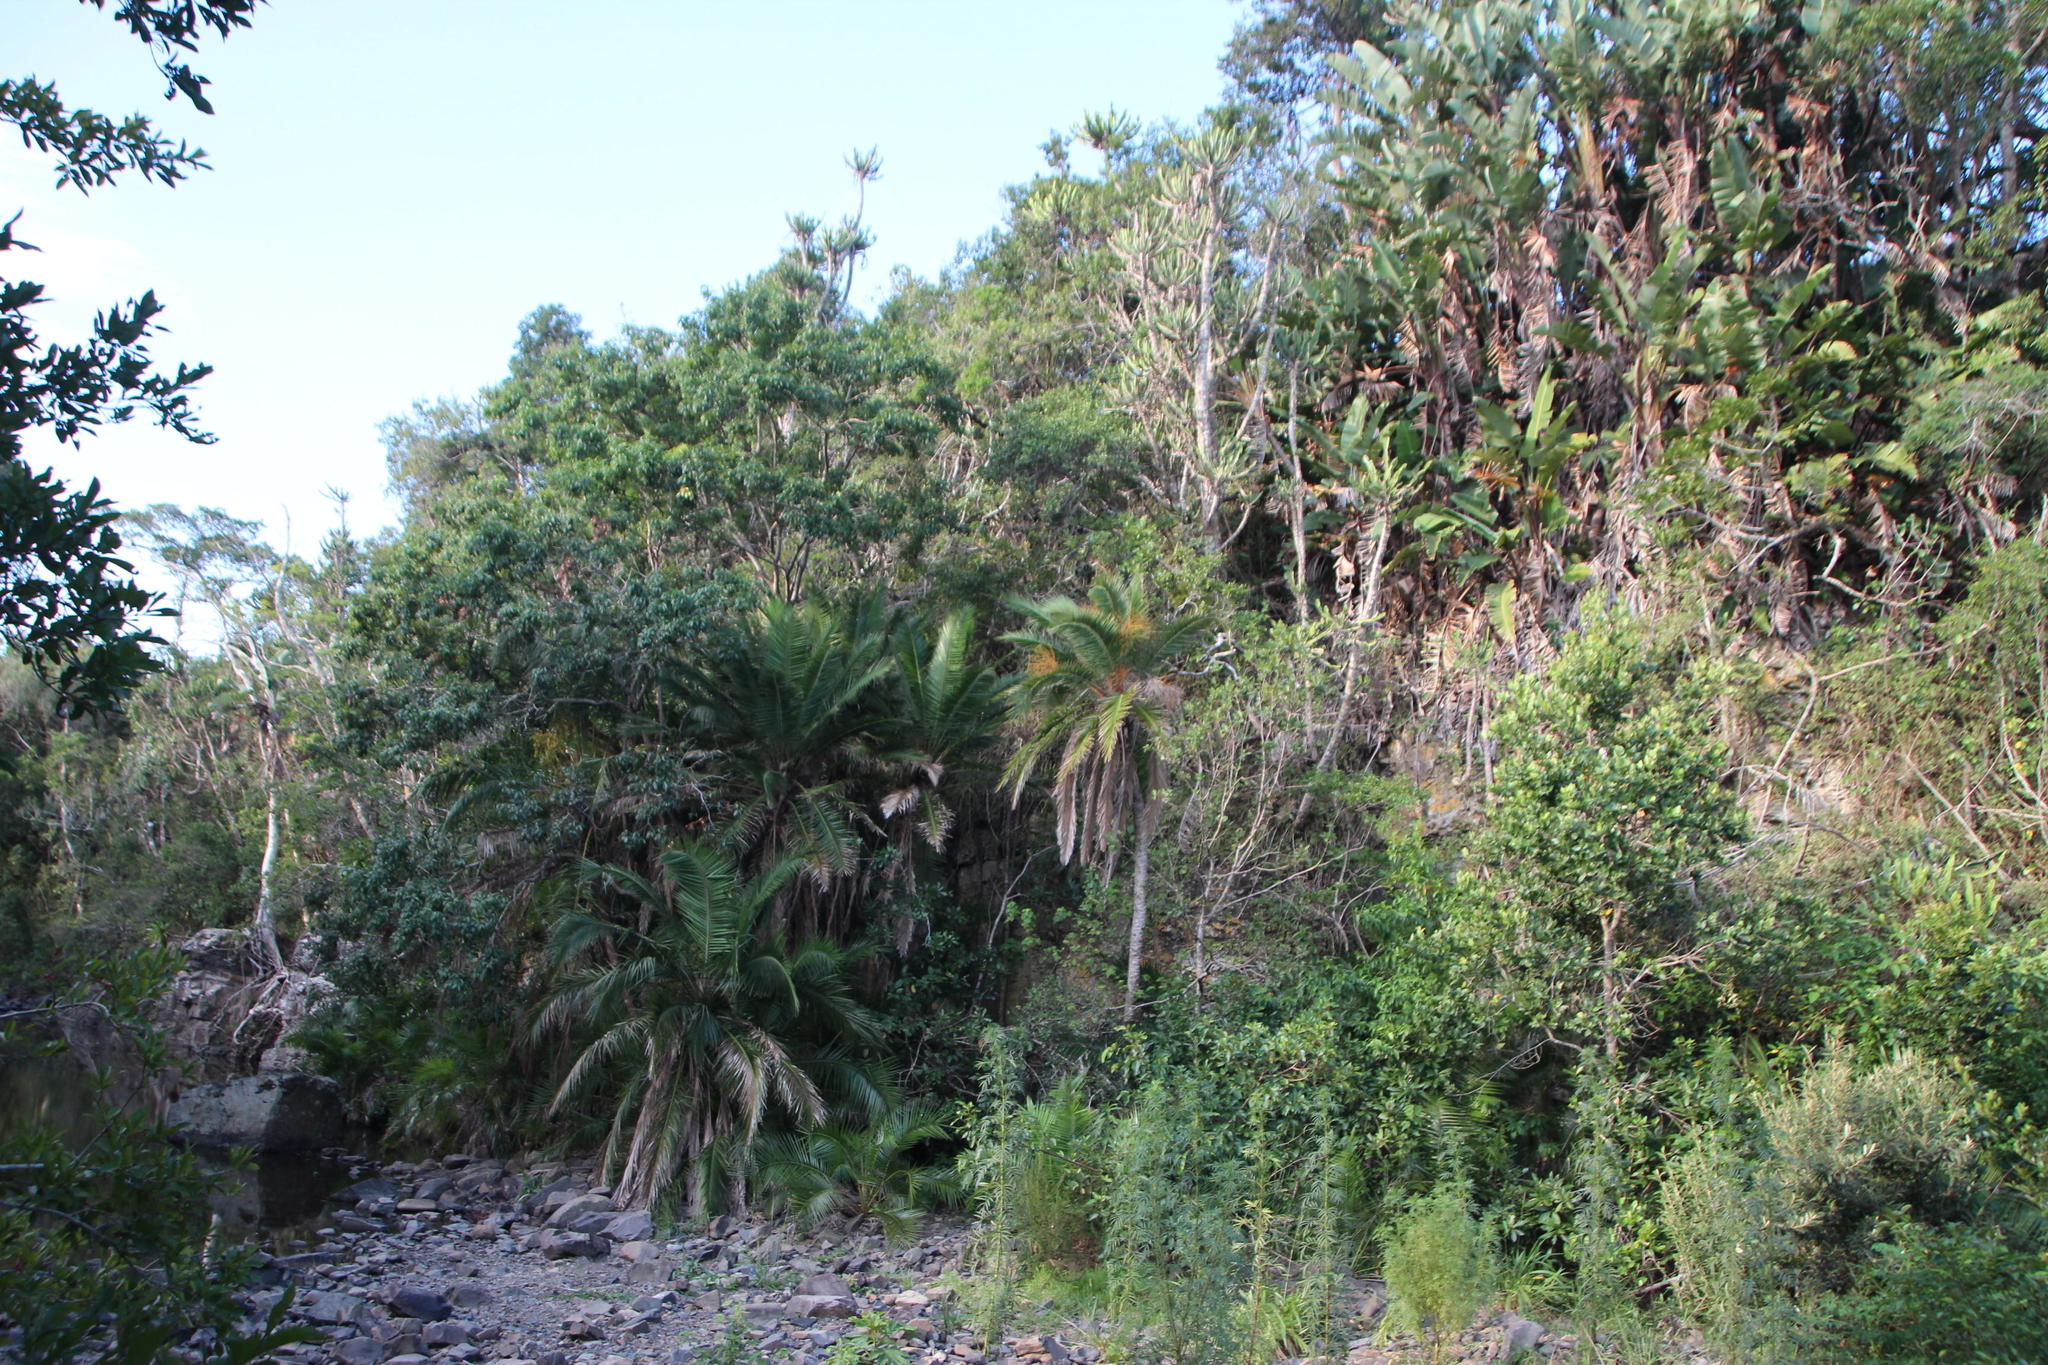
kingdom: Plantae
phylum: Tracheophyta
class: Liliopsida
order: Arecales
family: Arecaceae
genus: Phoenix
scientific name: Phoenix reclinata
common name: Senegal date palm
